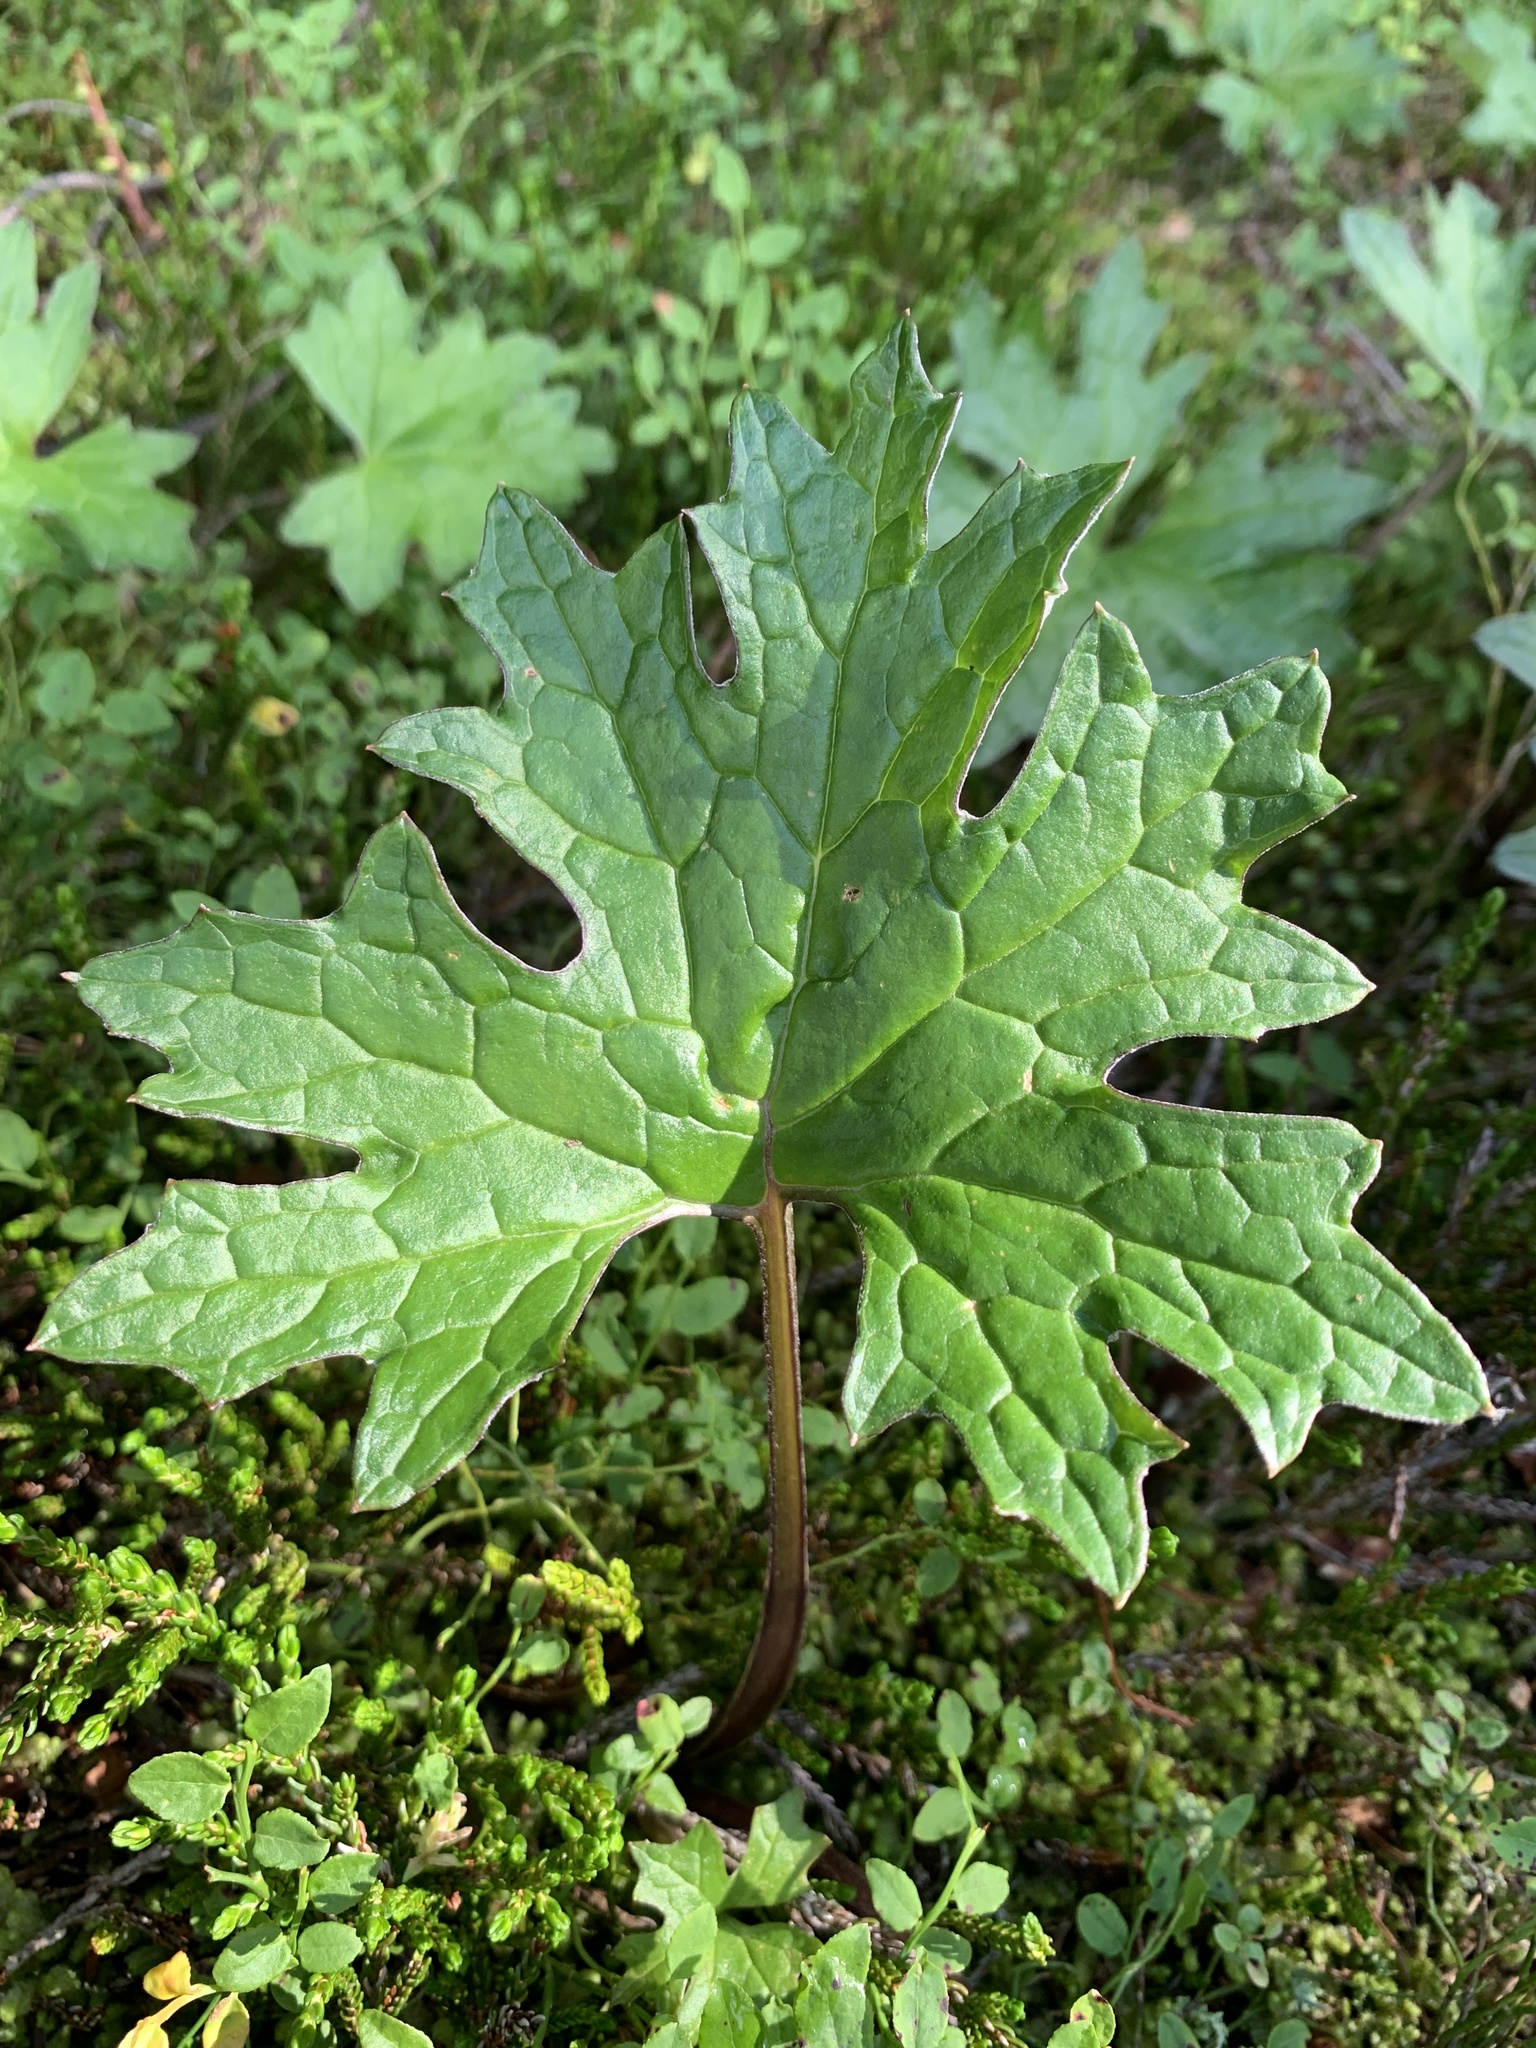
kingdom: Plantae
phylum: Tracheophyta
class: Magnoliopsida
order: Asterales
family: Asteraceae
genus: Petasites
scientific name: Petasites frigidus
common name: Arctic butterbur
